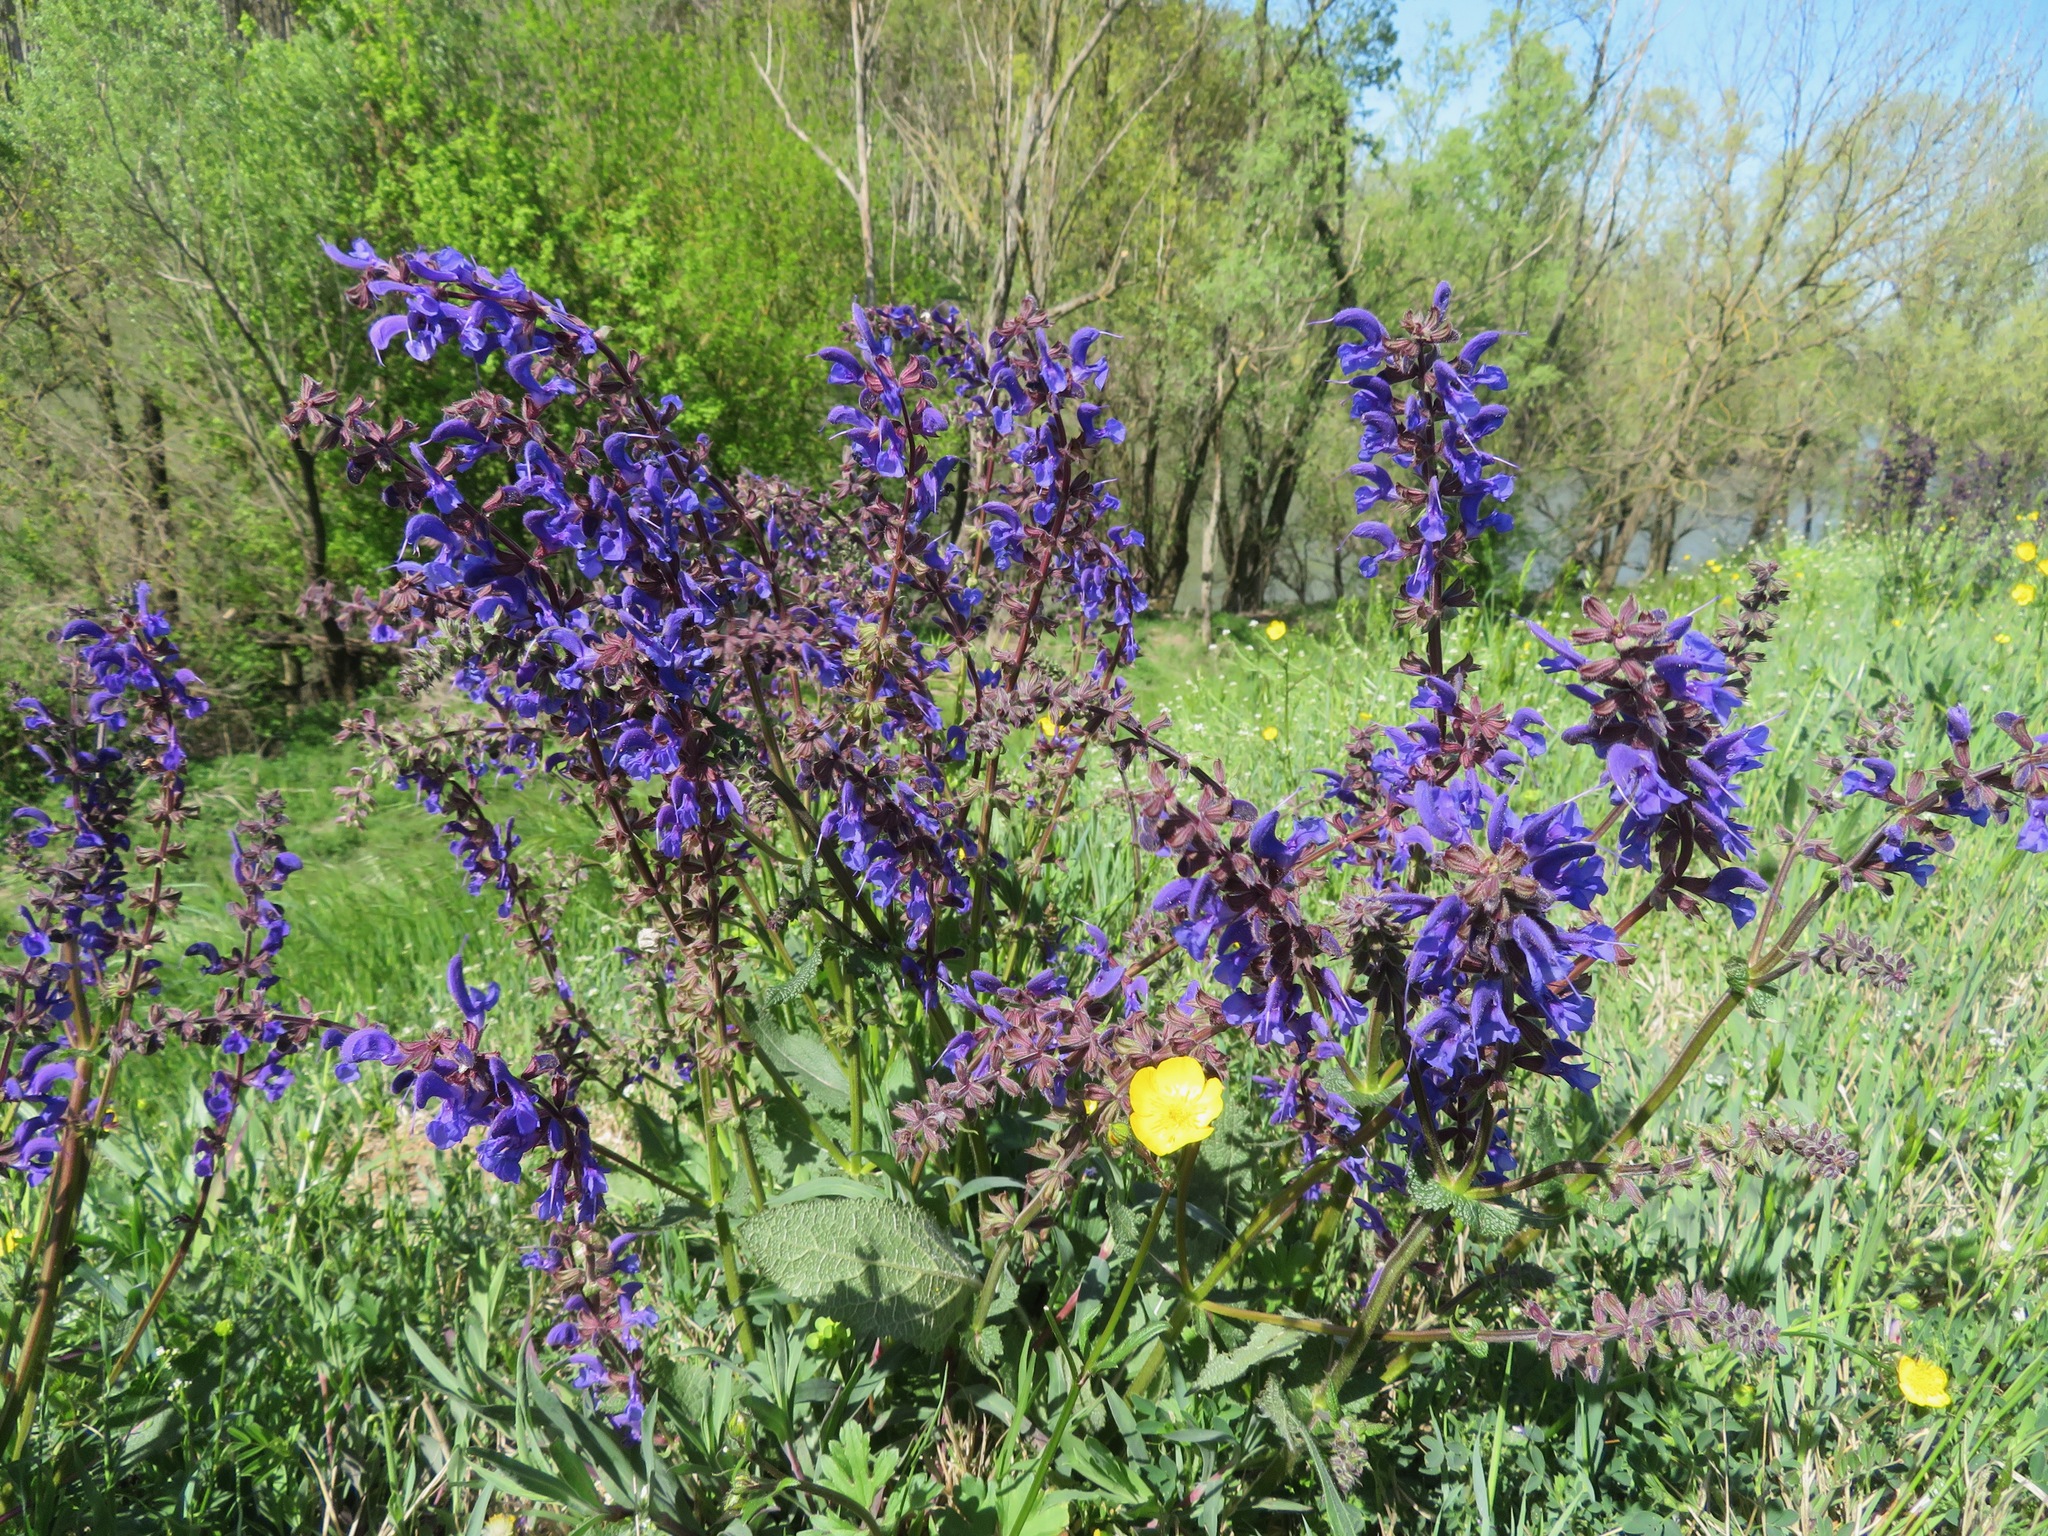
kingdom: Plantae
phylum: Tracheophyta
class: Magnoliopsida
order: Lamiales
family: Lamiaceae
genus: Salvia
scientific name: Salvia pratensis
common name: Meadow sage
